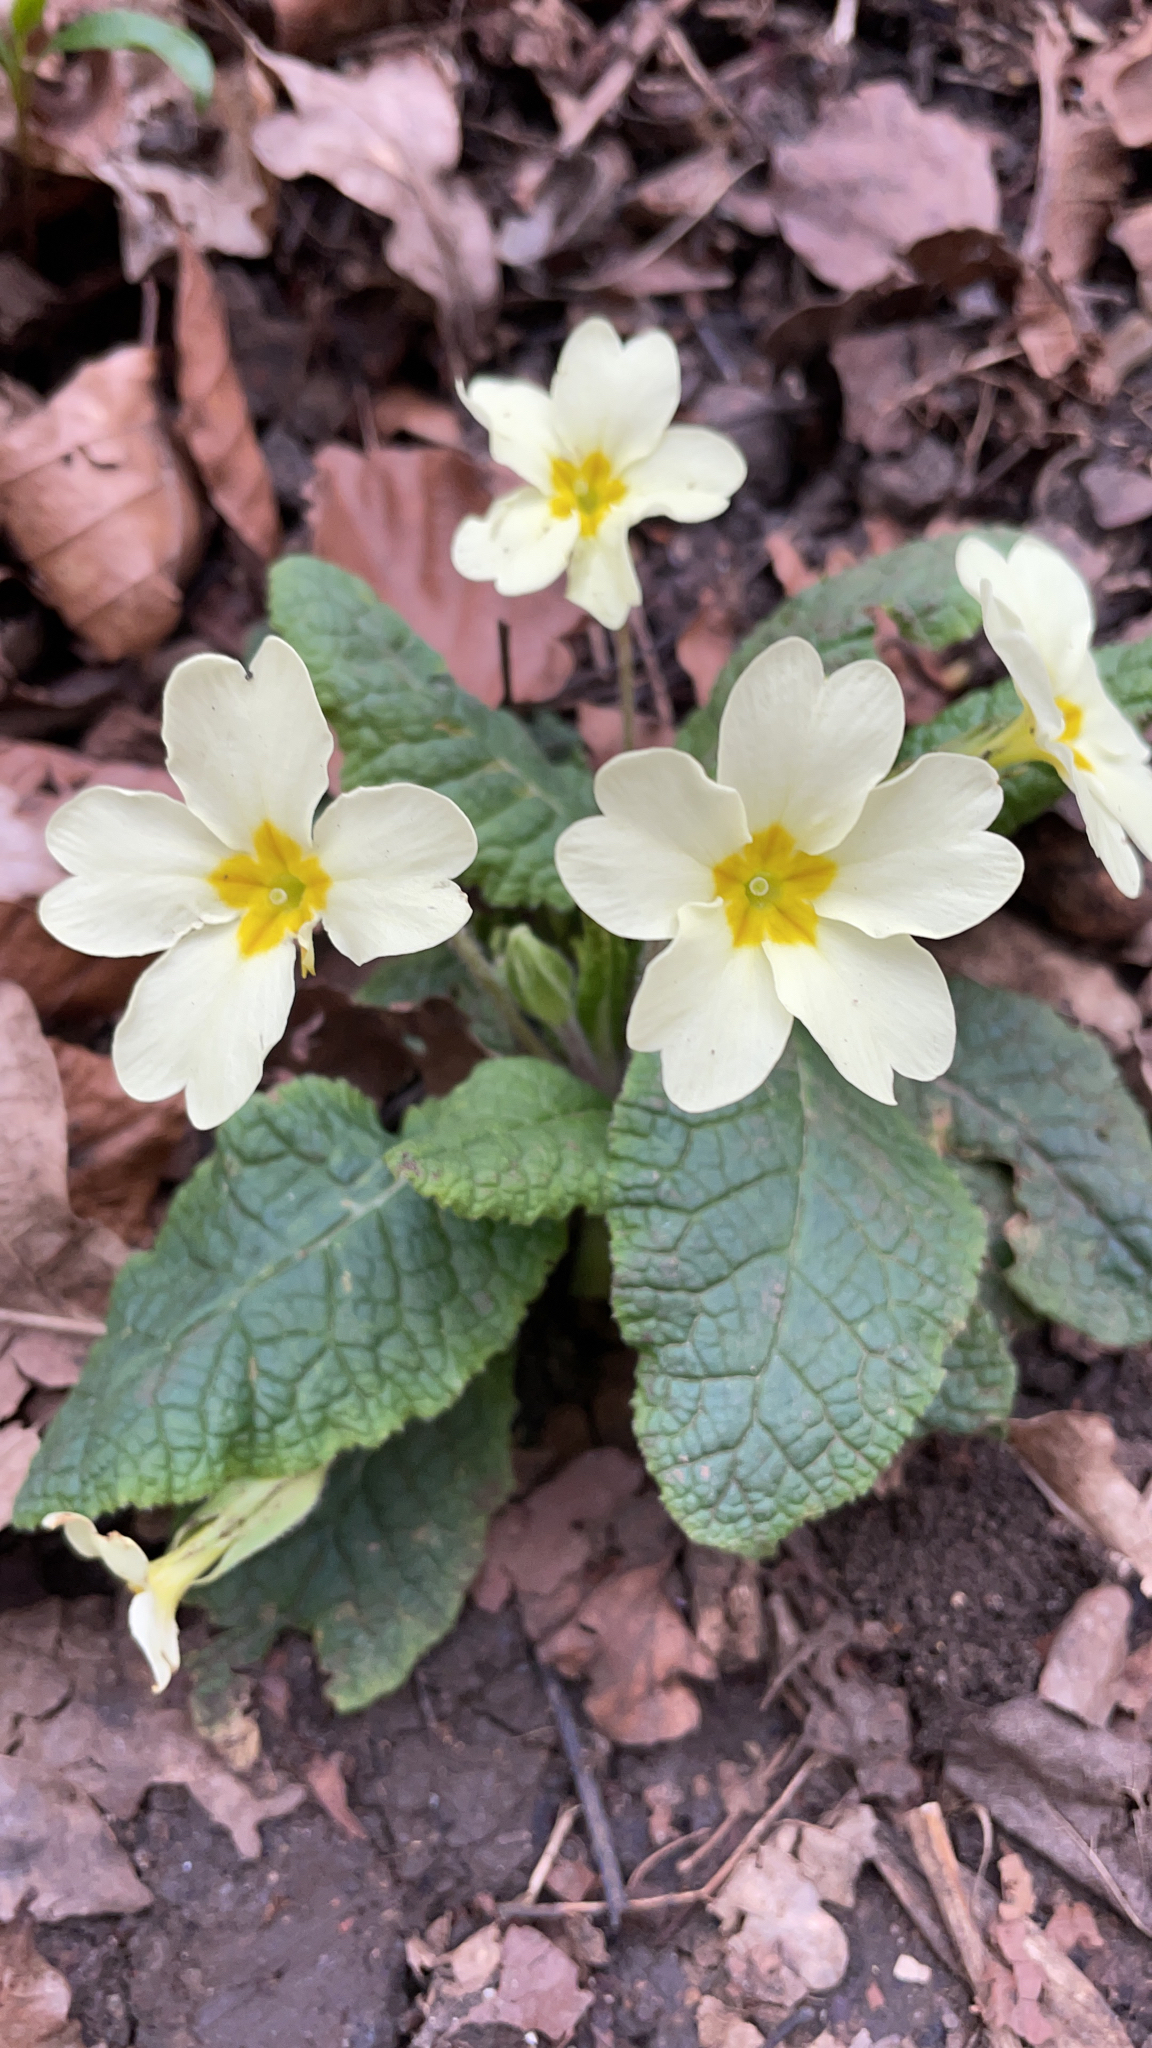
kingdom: Plantae
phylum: Tracheophyta
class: Magnoliopsida
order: Ericales
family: Primulaceae
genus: Primula
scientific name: Primula vulgaris
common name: Primrose
